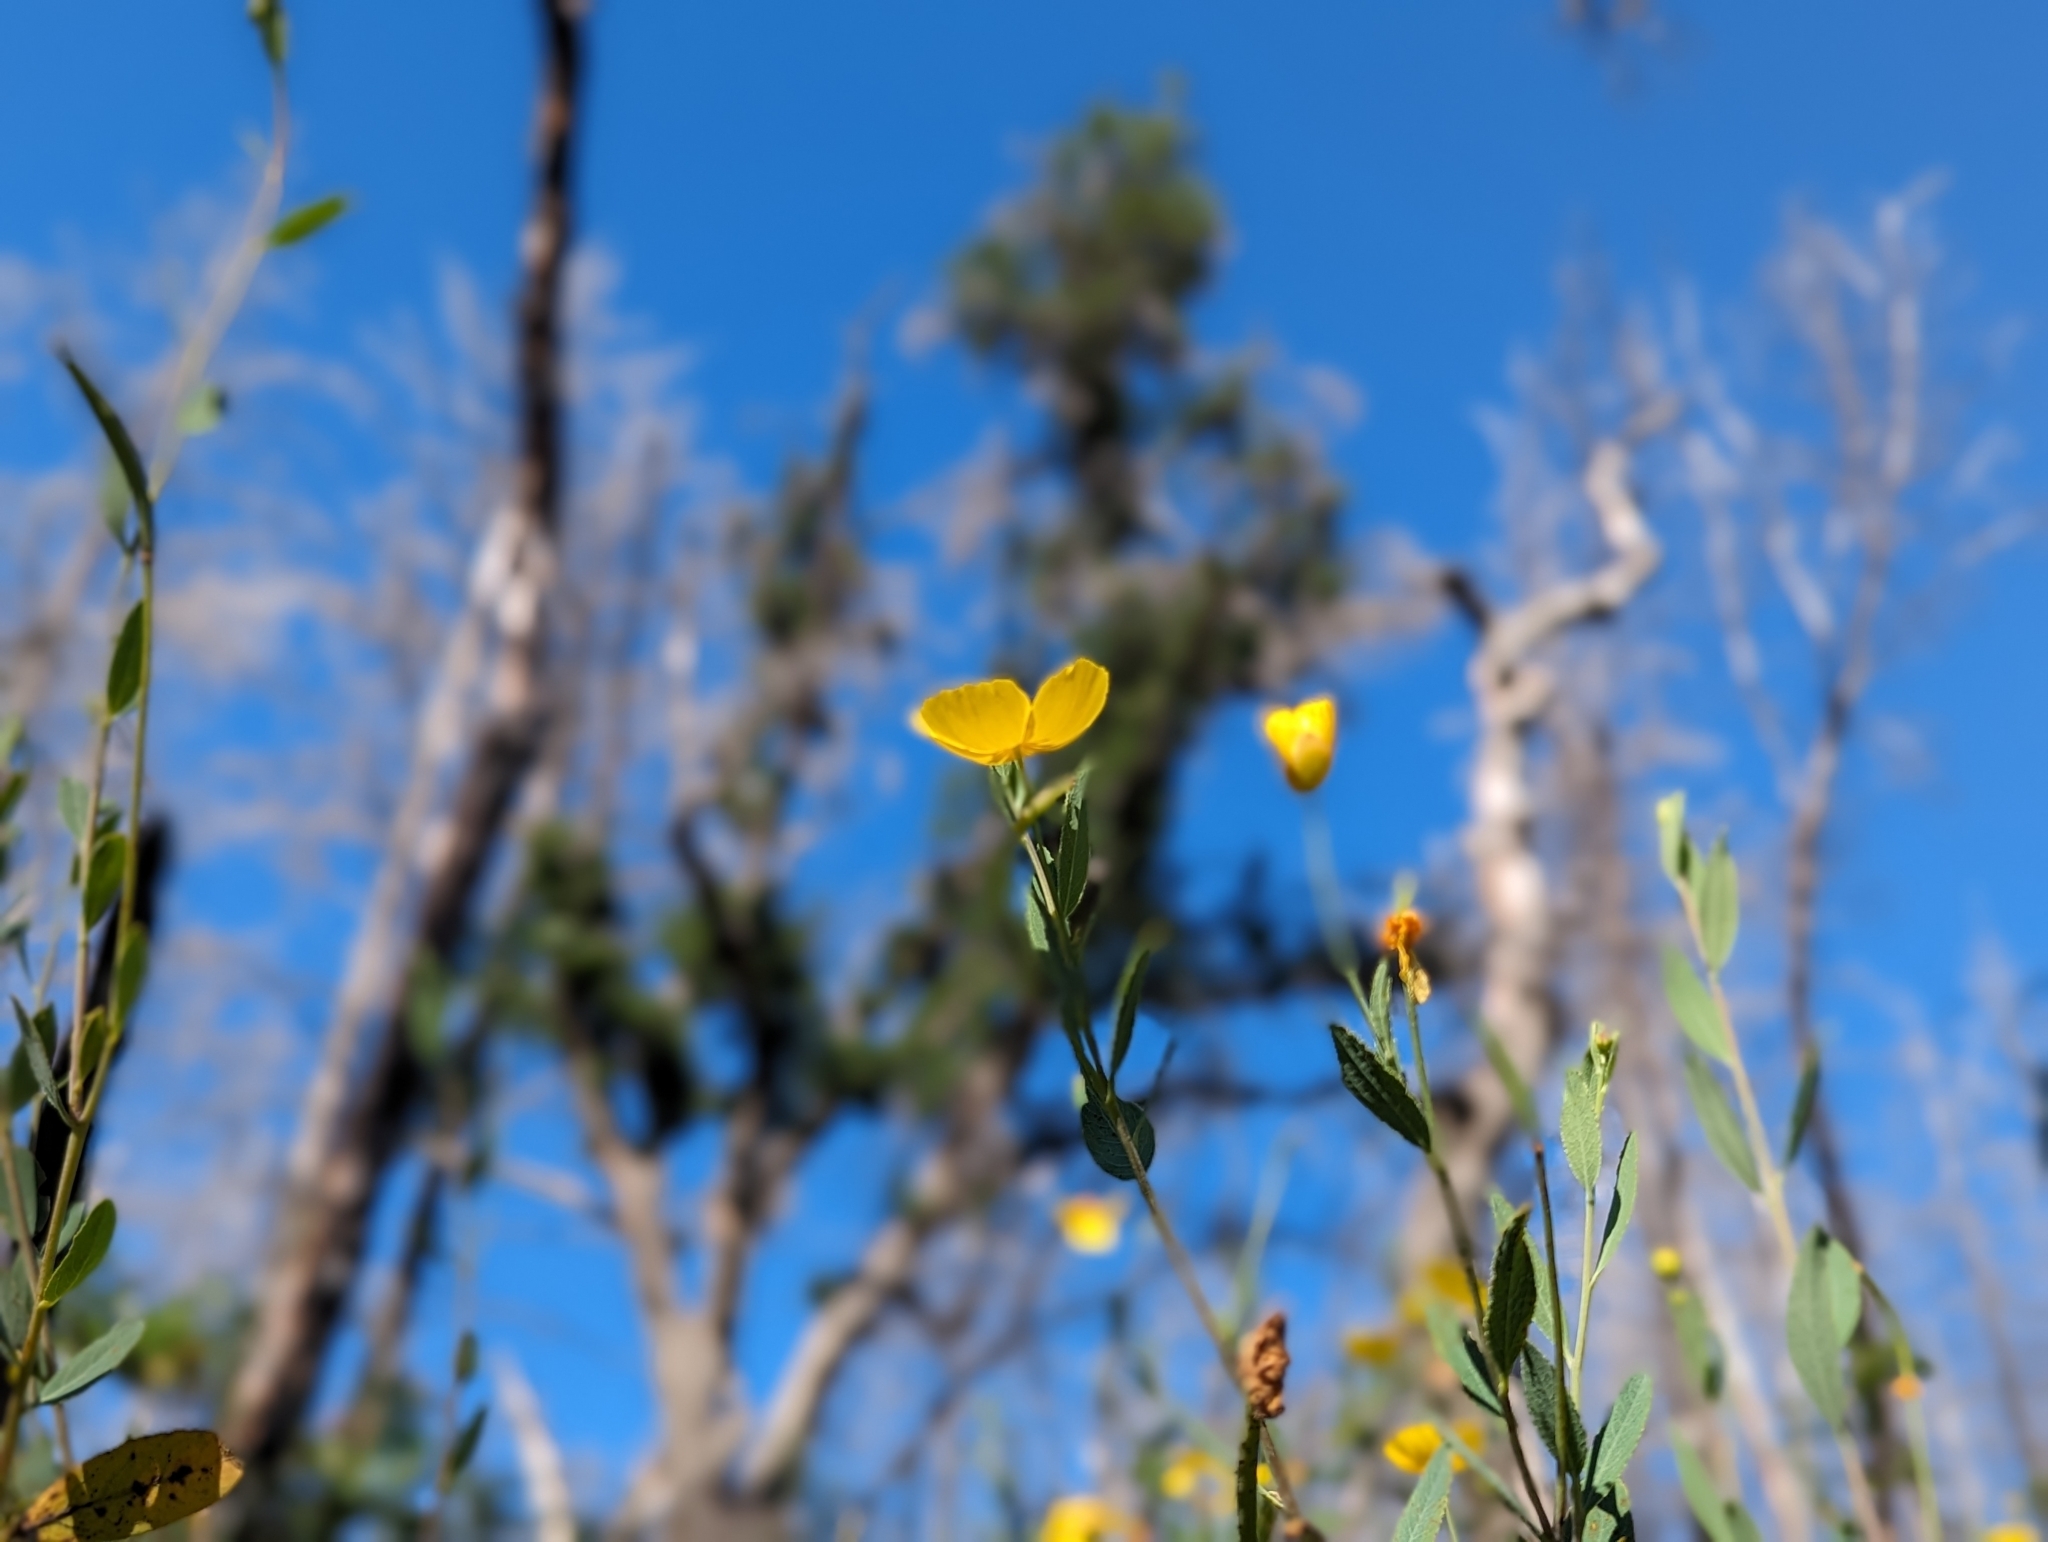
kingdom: Plantae
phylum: Tracheophyta
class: Magnoliopsida
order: Ranunculales
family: Papaveraceae
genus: Dendromecon
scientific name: Dendromecon rigida
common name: Tree poppy
